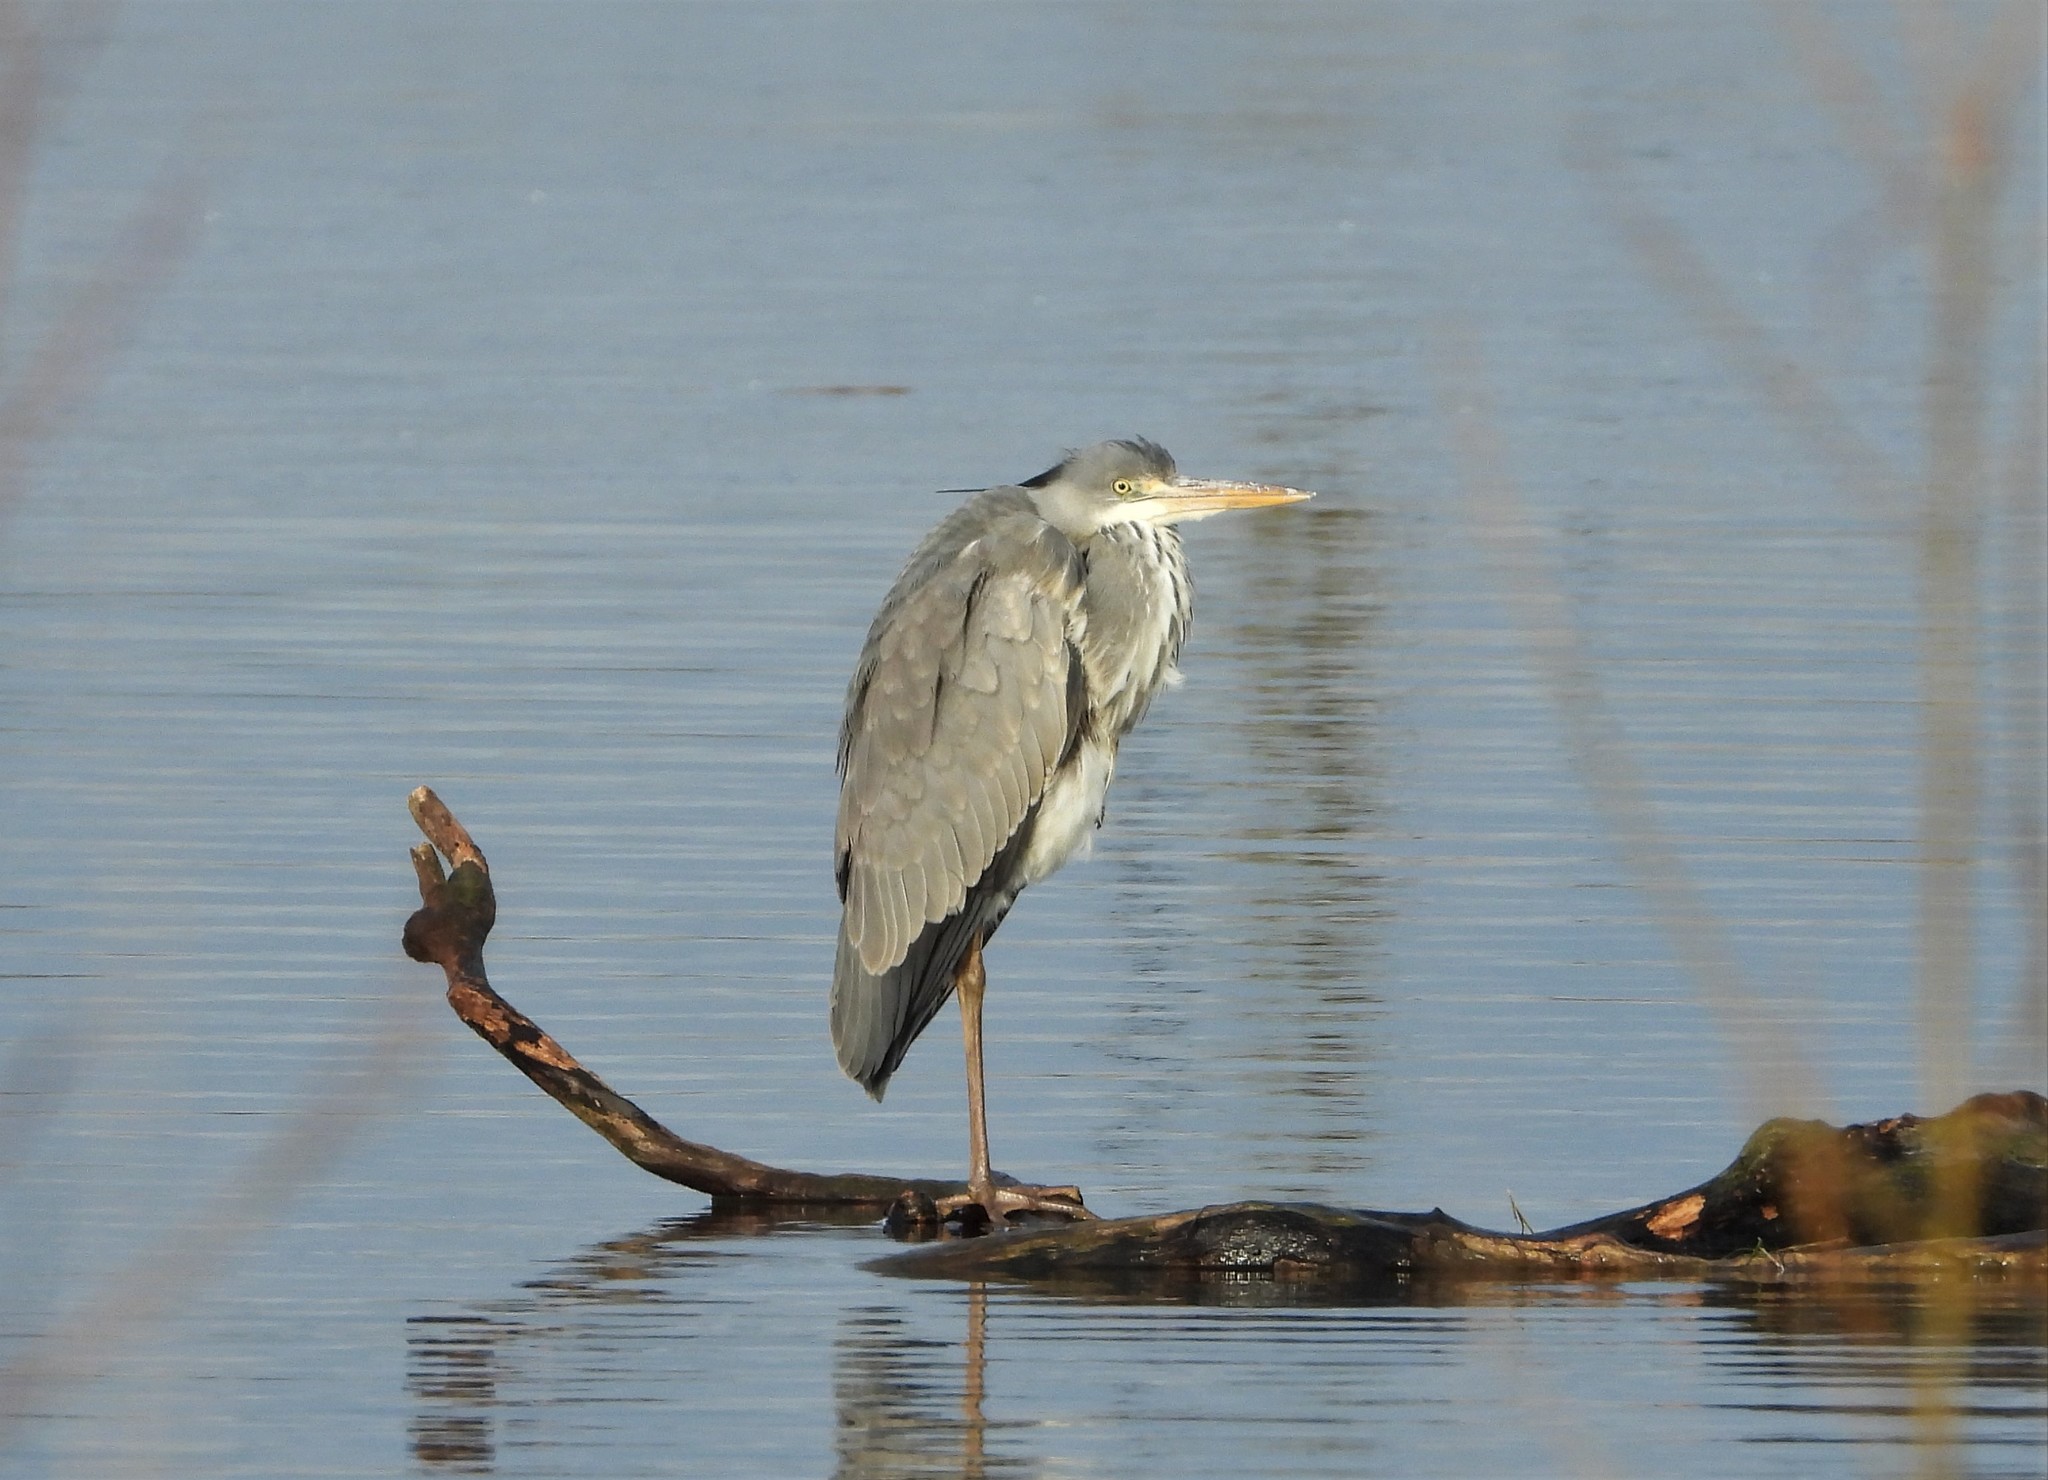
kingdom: Animalia
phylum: Chordata
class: Aves
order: Pelecaniformes
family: Ardeidae
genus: Ardea
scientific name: Ardea cinerea
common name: Grey heron
